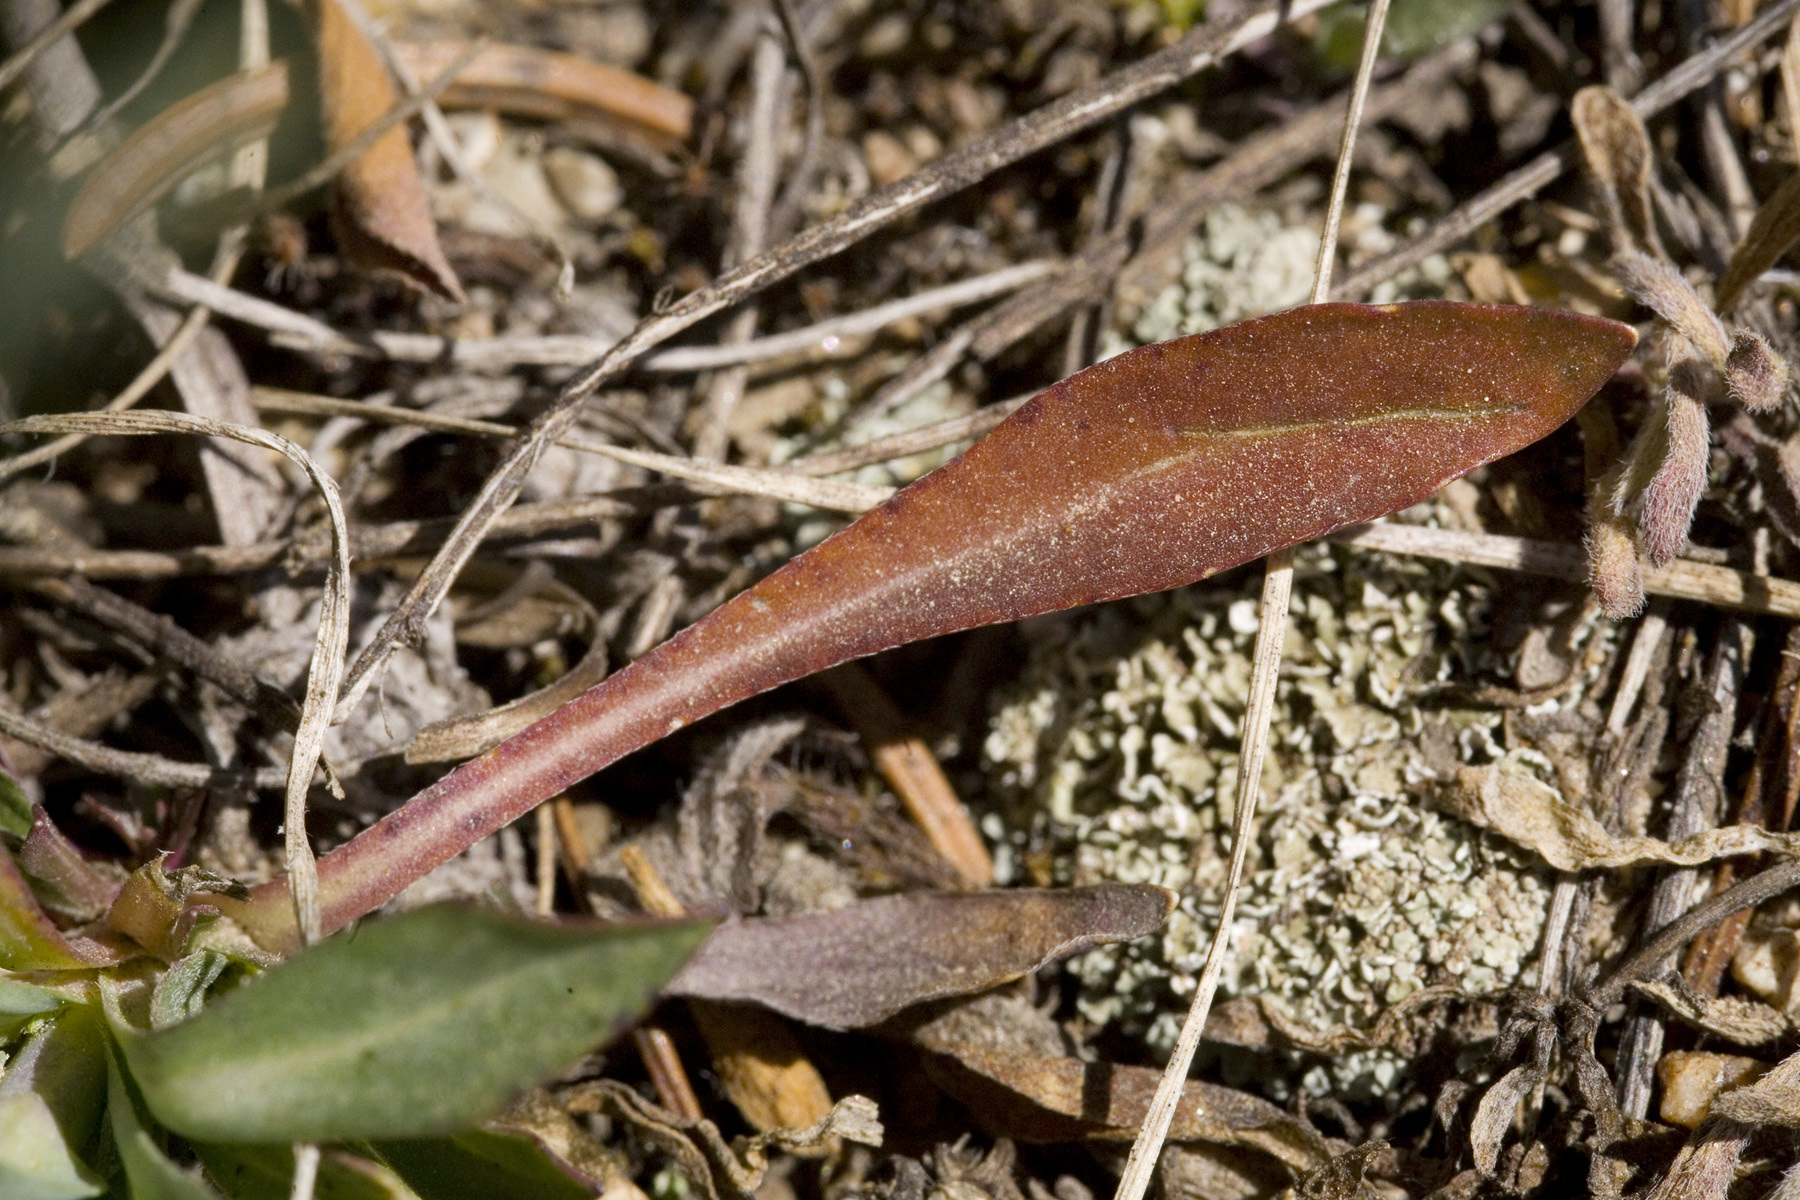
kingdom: Plantae
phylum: Tracheophyta
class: Magnoliopsida
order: Brassicales
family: Brassicaceae
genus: Boechera
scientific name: Boechera stricta
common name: Canadian rockcress
